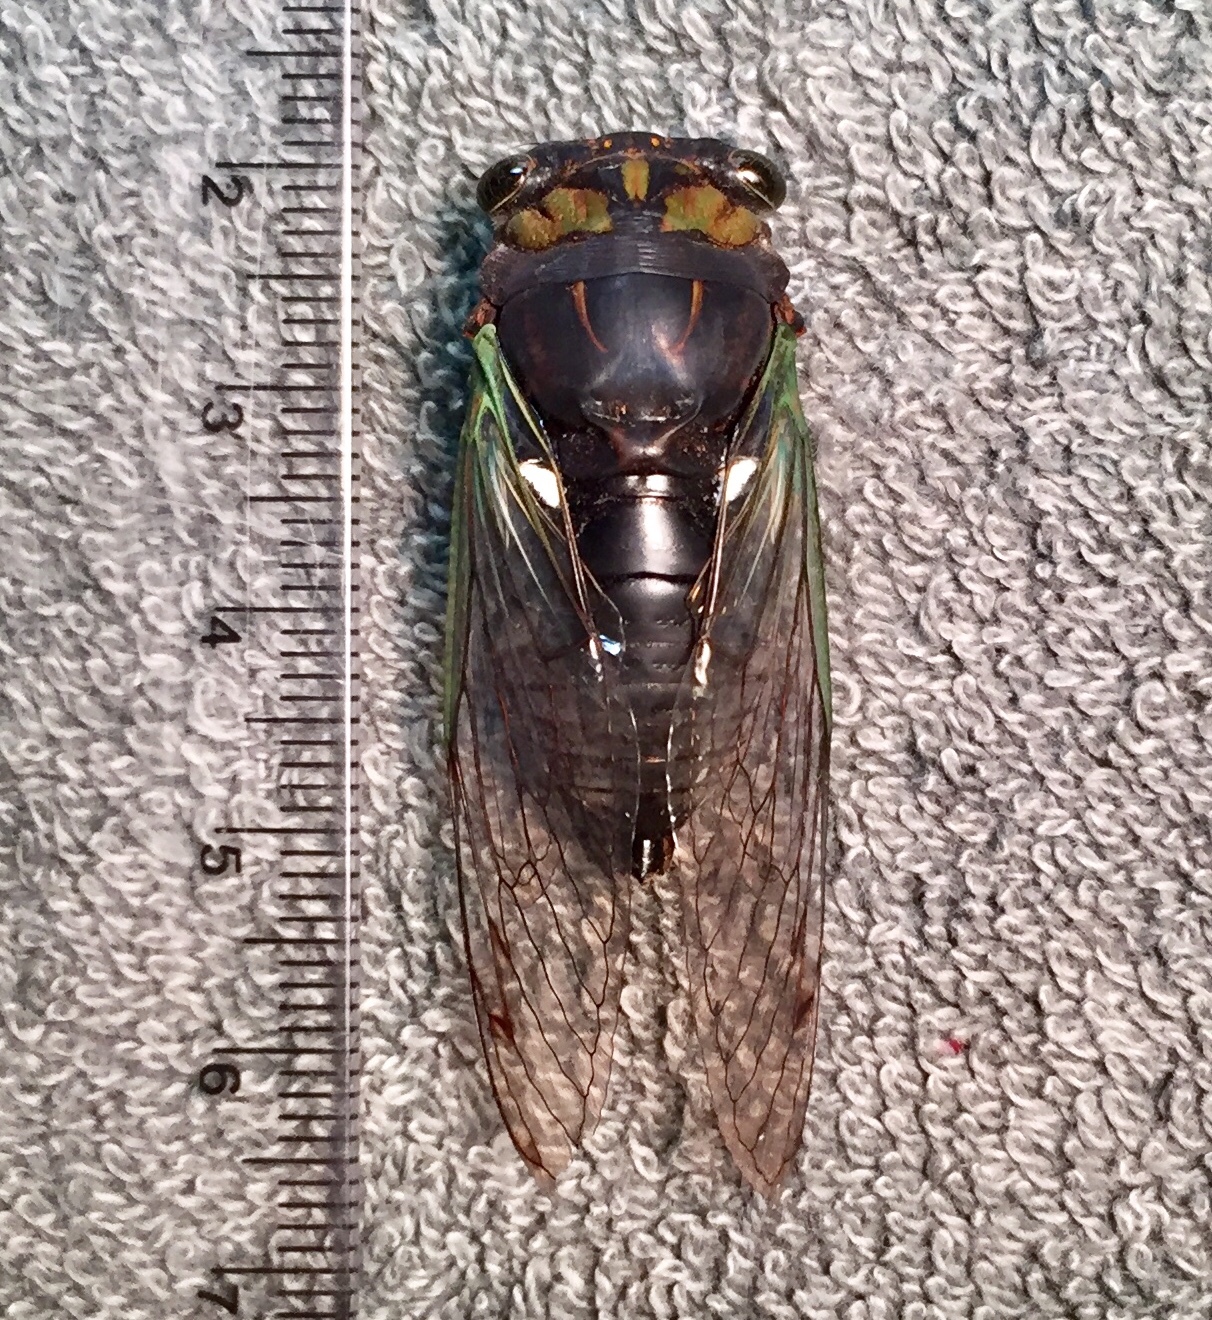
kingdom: Animalia
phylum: Arthropoda
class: Insecta
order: Hemiptera
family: Cicadidae
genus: Neotibicen
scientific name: Neotibicen tibicen
